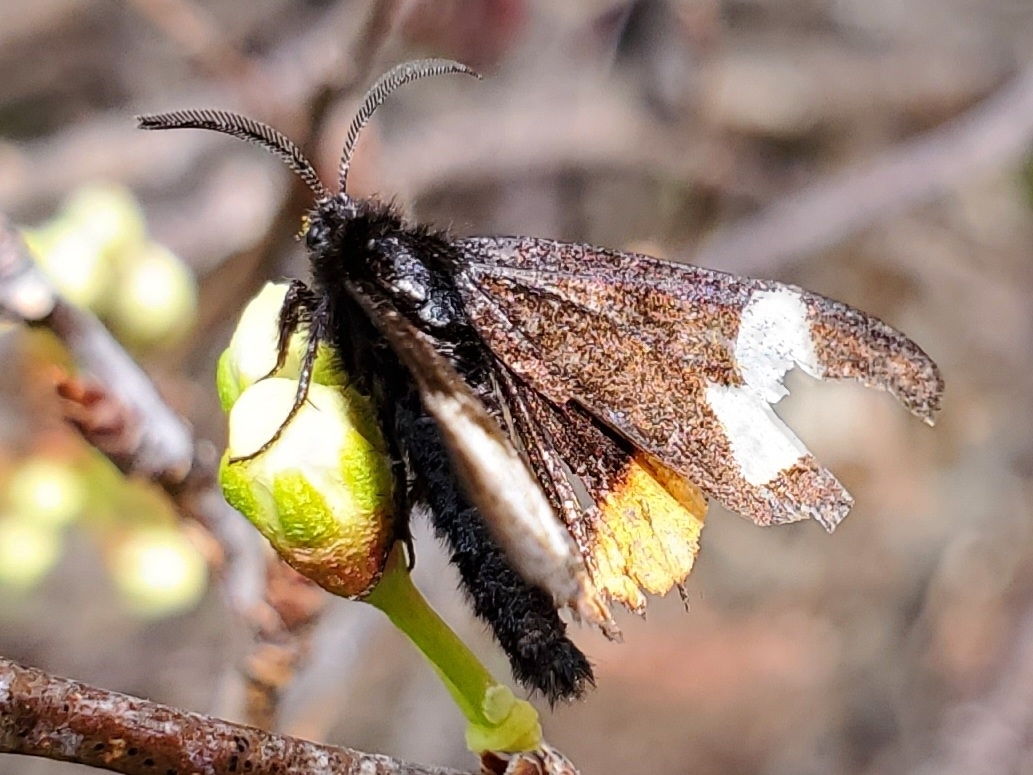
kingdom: Animalia
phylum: Arthropoda
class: Insecta
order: Lepidoptera
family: Noctuidae
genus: Psychomorpha
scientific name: Psychomorpha epimenis
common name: Grapevine epimenis moth
